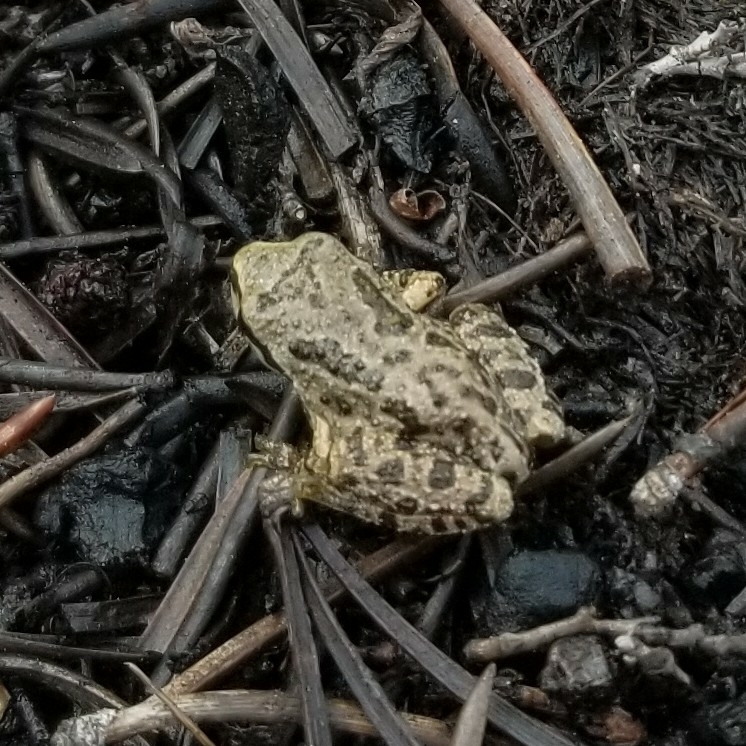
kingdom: Animalia
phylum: Chordata
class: Amphibia
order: Anura
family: Hylidae
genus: Pseudacris
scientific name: Pseudacris regilla
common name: Pacific chorus frog
